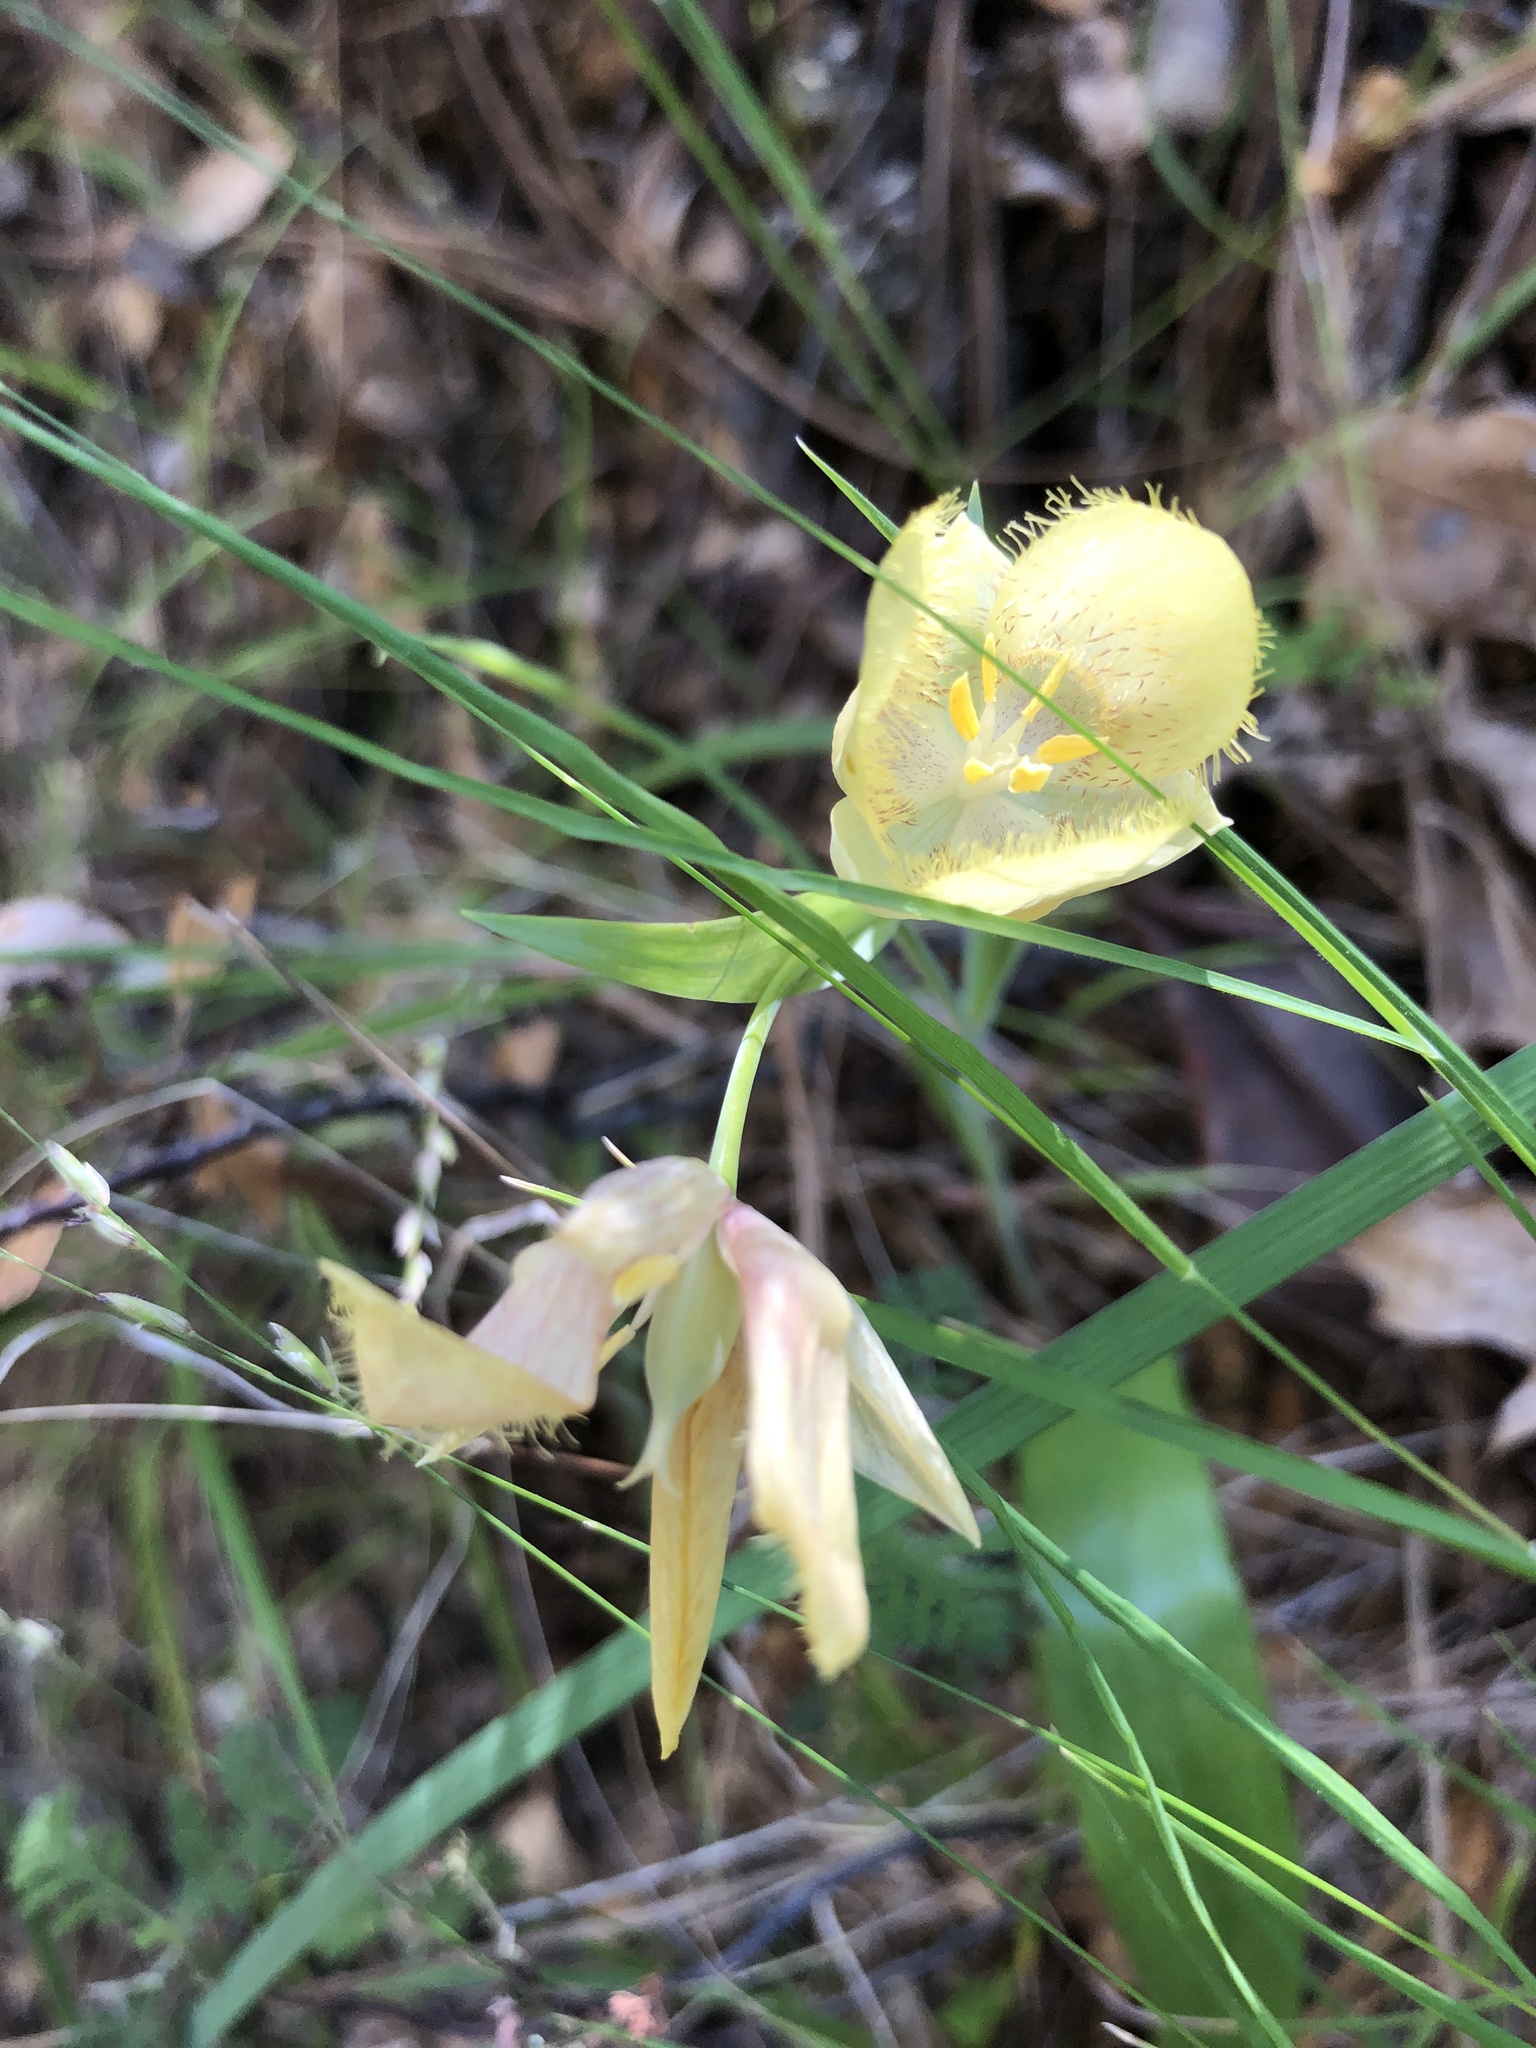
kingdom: Plantae
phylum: Tracheophyta
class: Liliopsida
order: Liliales
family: Liliaceae
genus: Calochortus
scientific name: Calochortus albus
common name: Fairy-lantern
